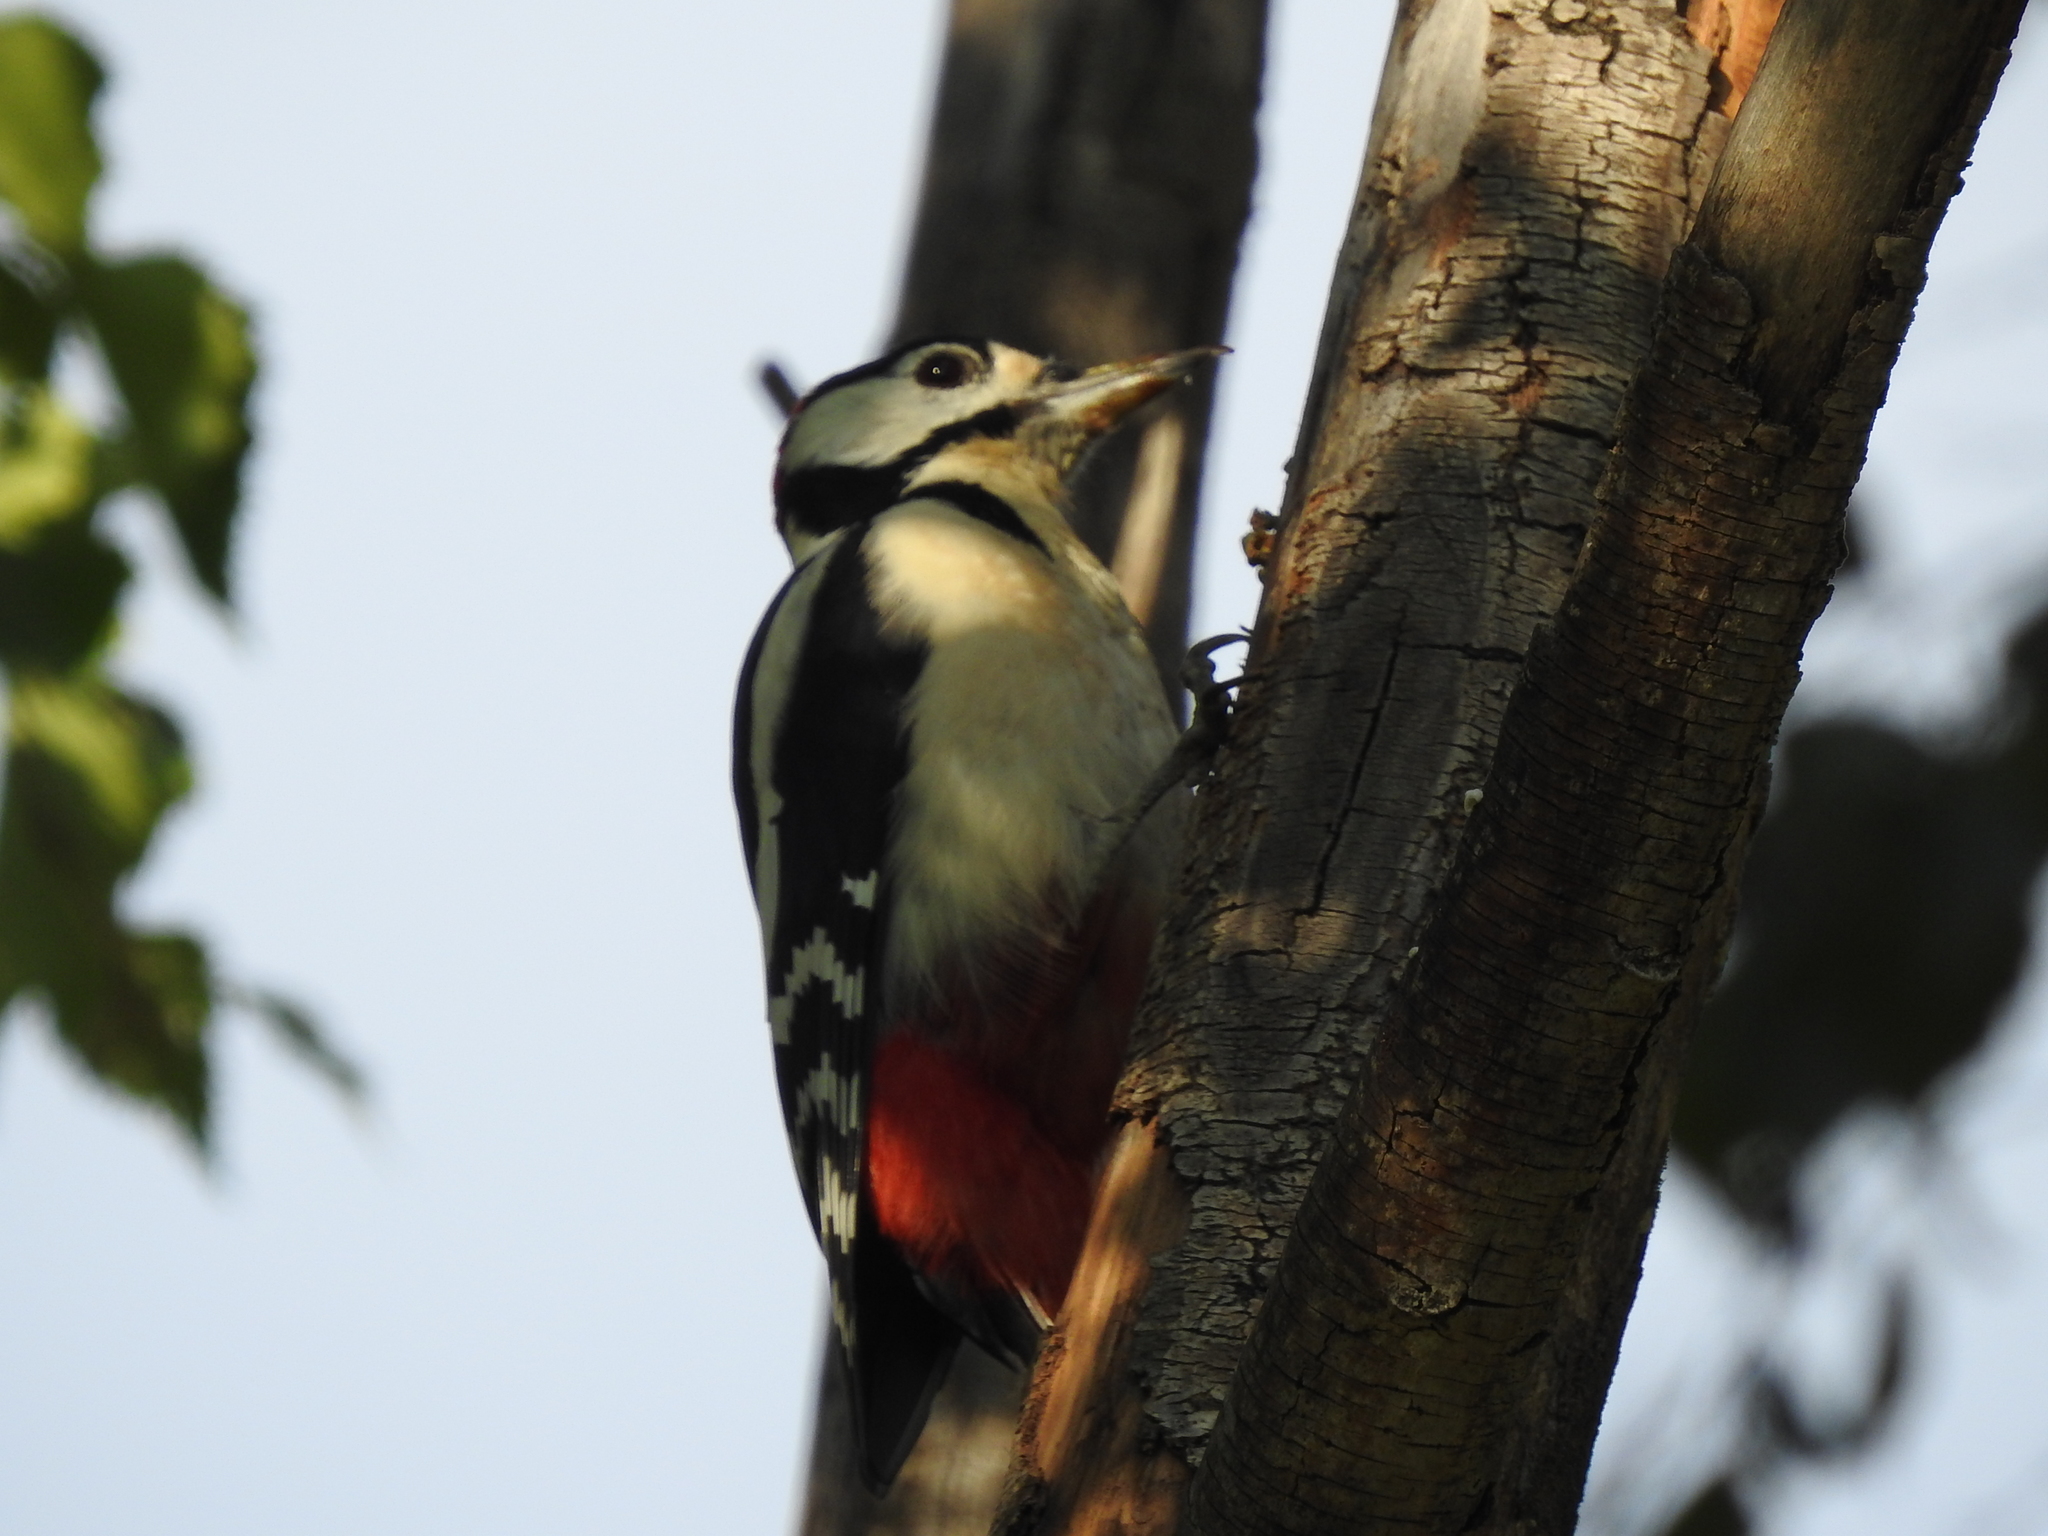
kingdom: Animalia
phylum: Chordata
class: Aves
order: Piciformes
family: Picidae
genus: Dendrocopos
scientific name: Dendrocopos major
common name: Great spotted woodpecker
